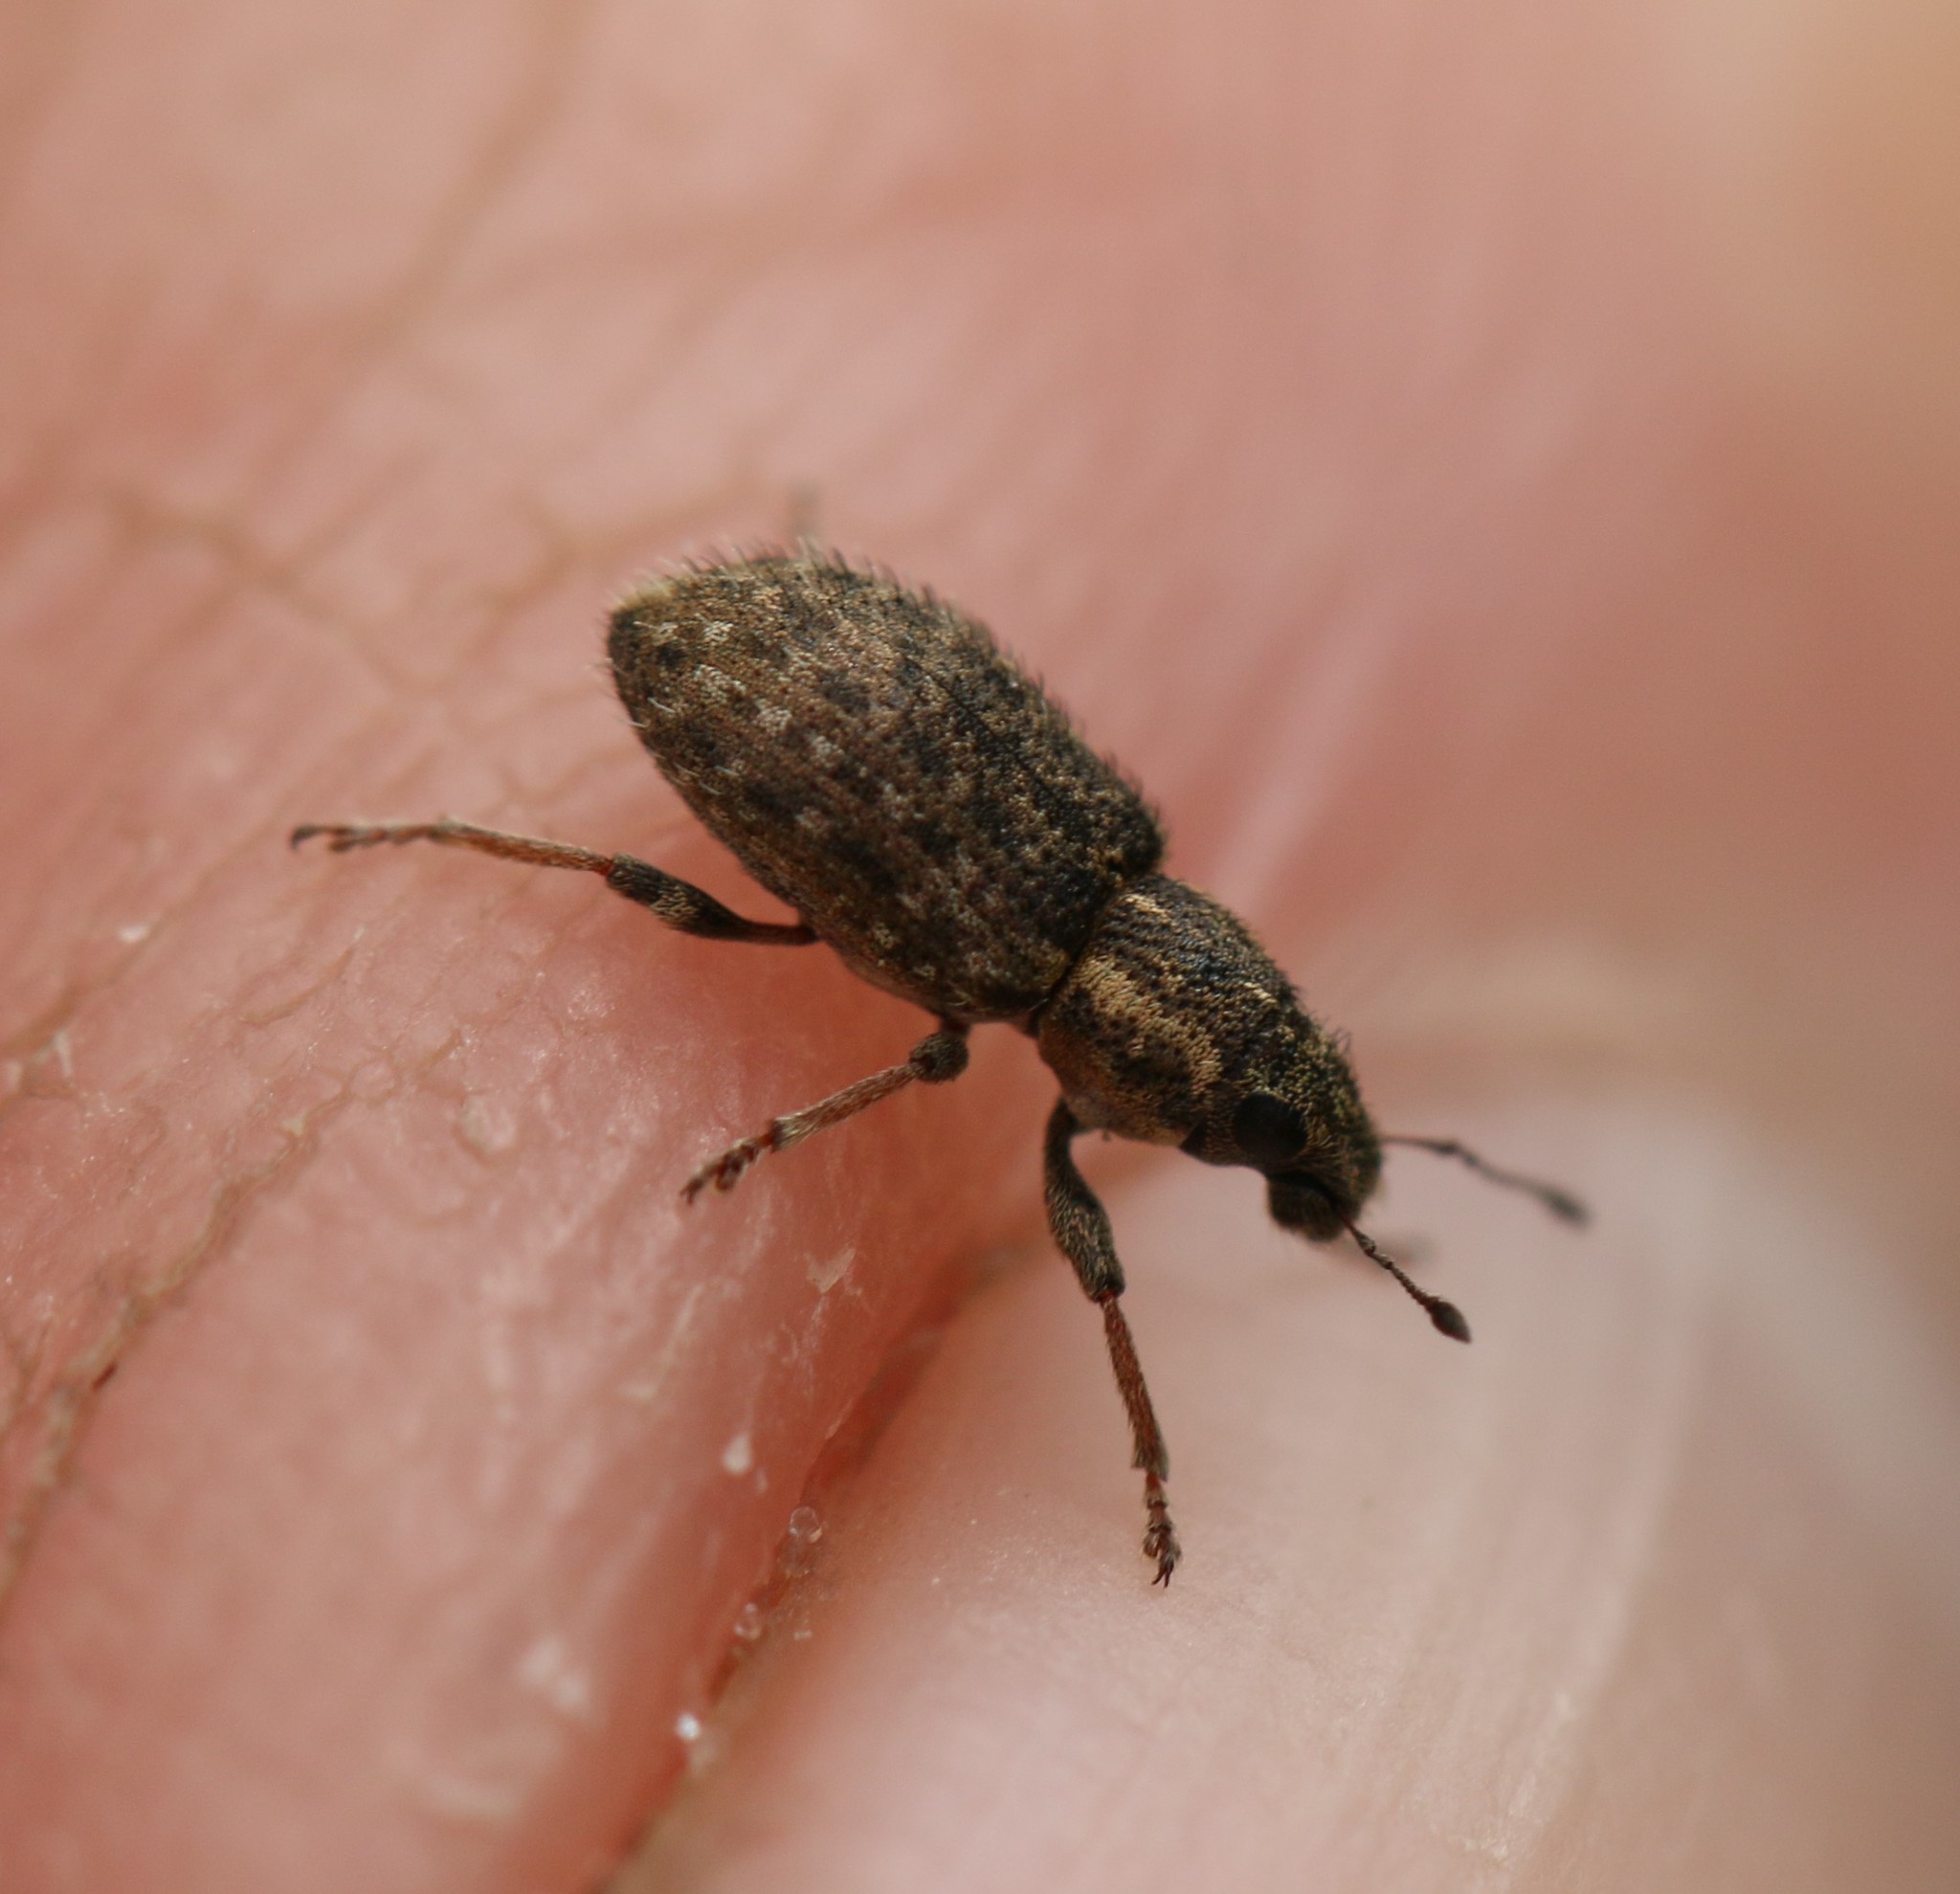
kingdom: Animalia
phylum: Arthropoda
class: Insecta
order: Coleoptera
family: Curculionidae
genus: Sitona
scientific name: Sitona hispidulus
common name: Clover weevil
